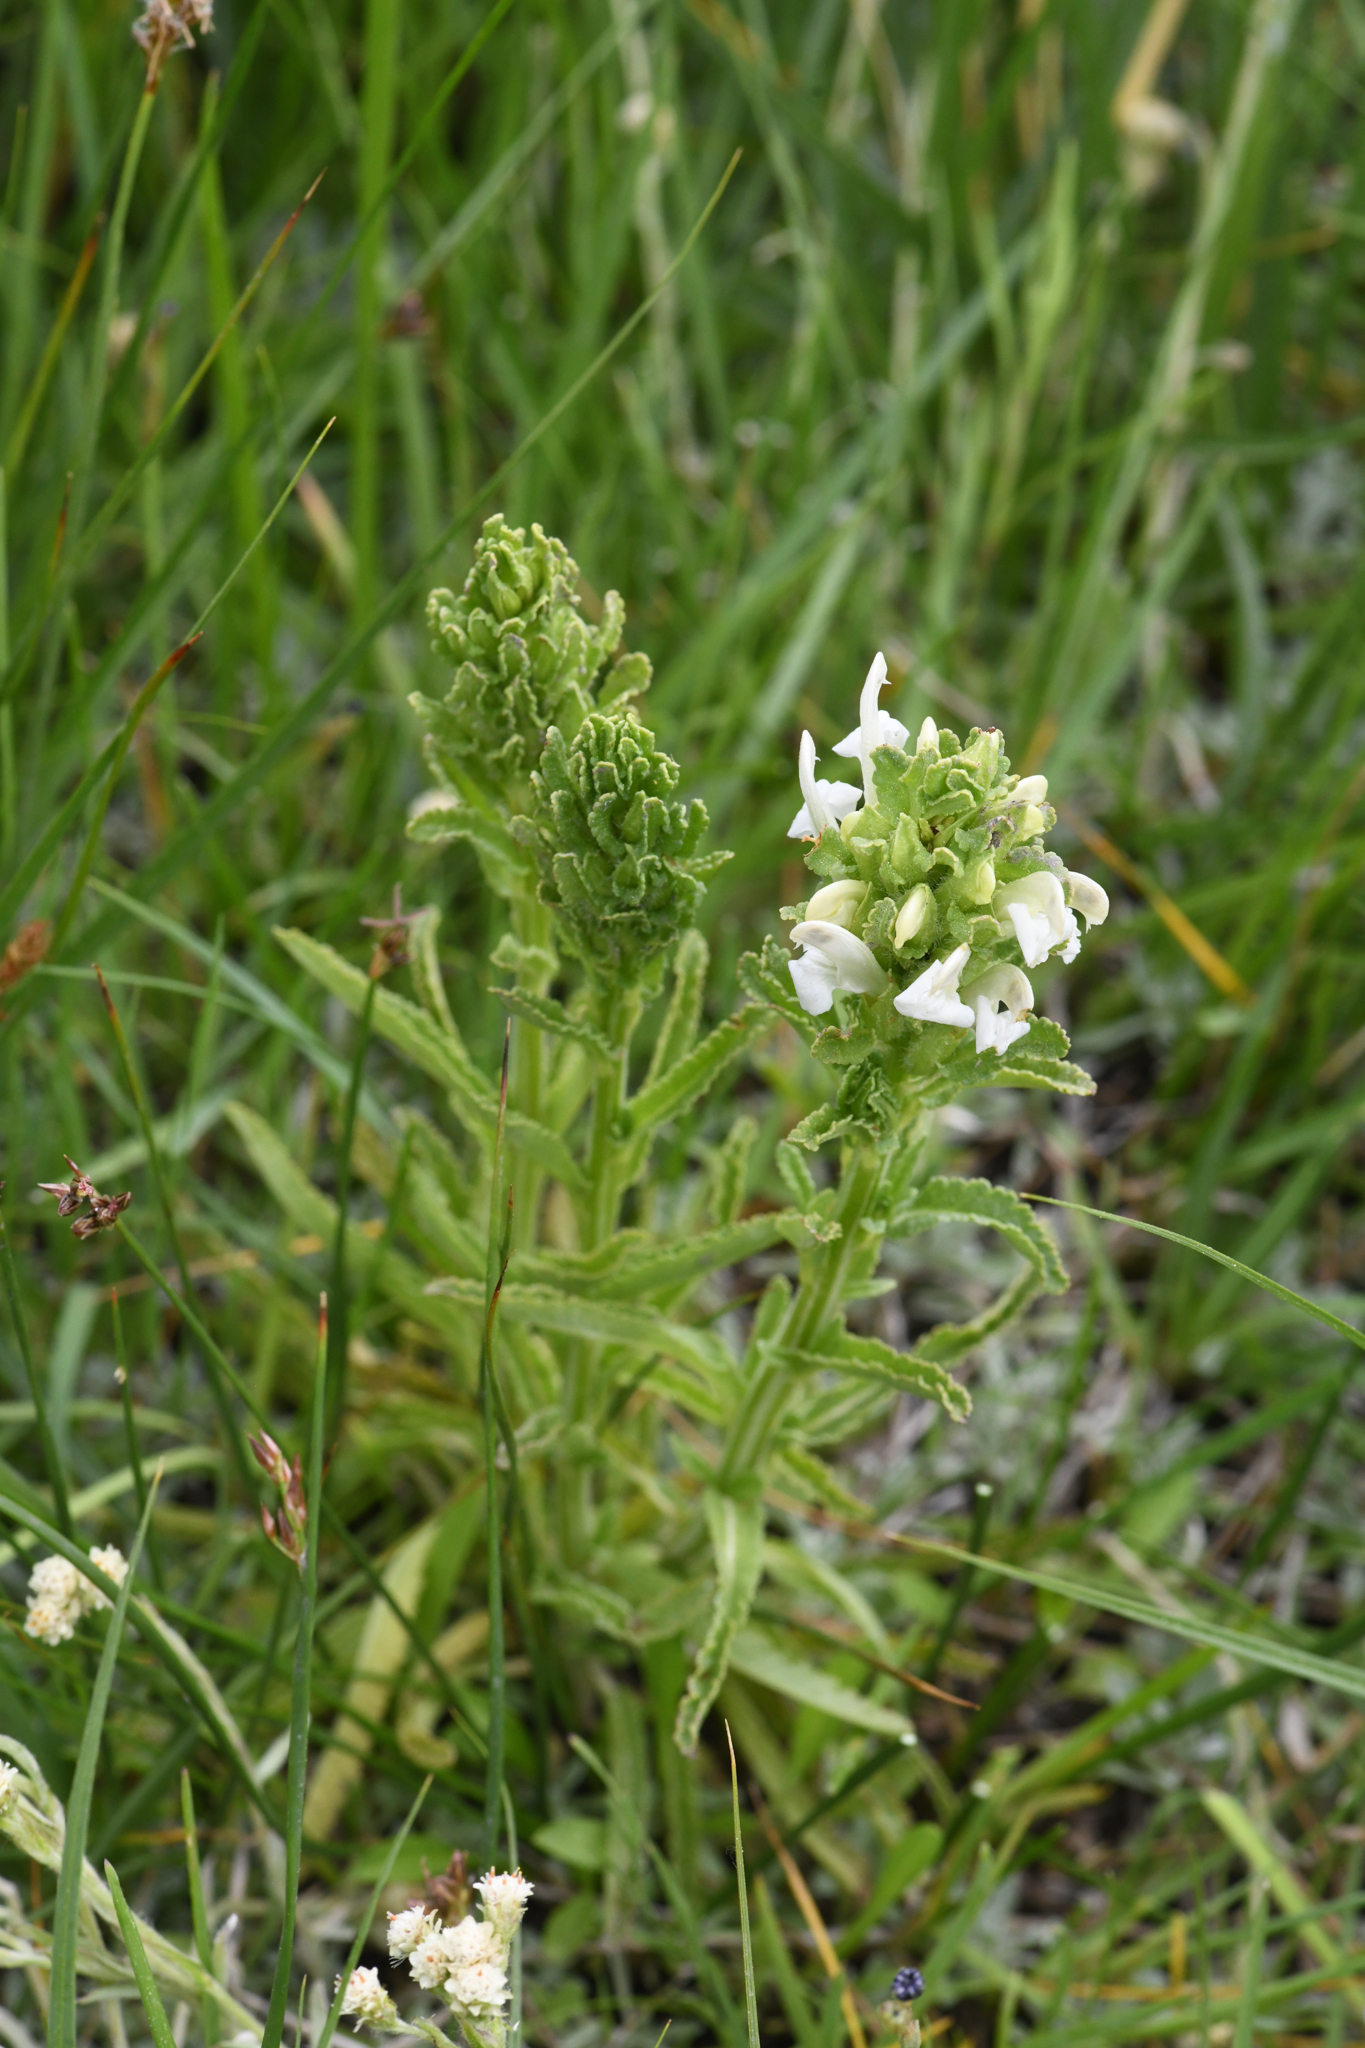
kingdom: Plantae
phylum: Tracheophyta
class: Magnoliopsida
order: Lamiales
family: Orobanchaceae
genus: Pedicularis
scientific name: Pedicularis crenulata
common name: Meadow lousewort
